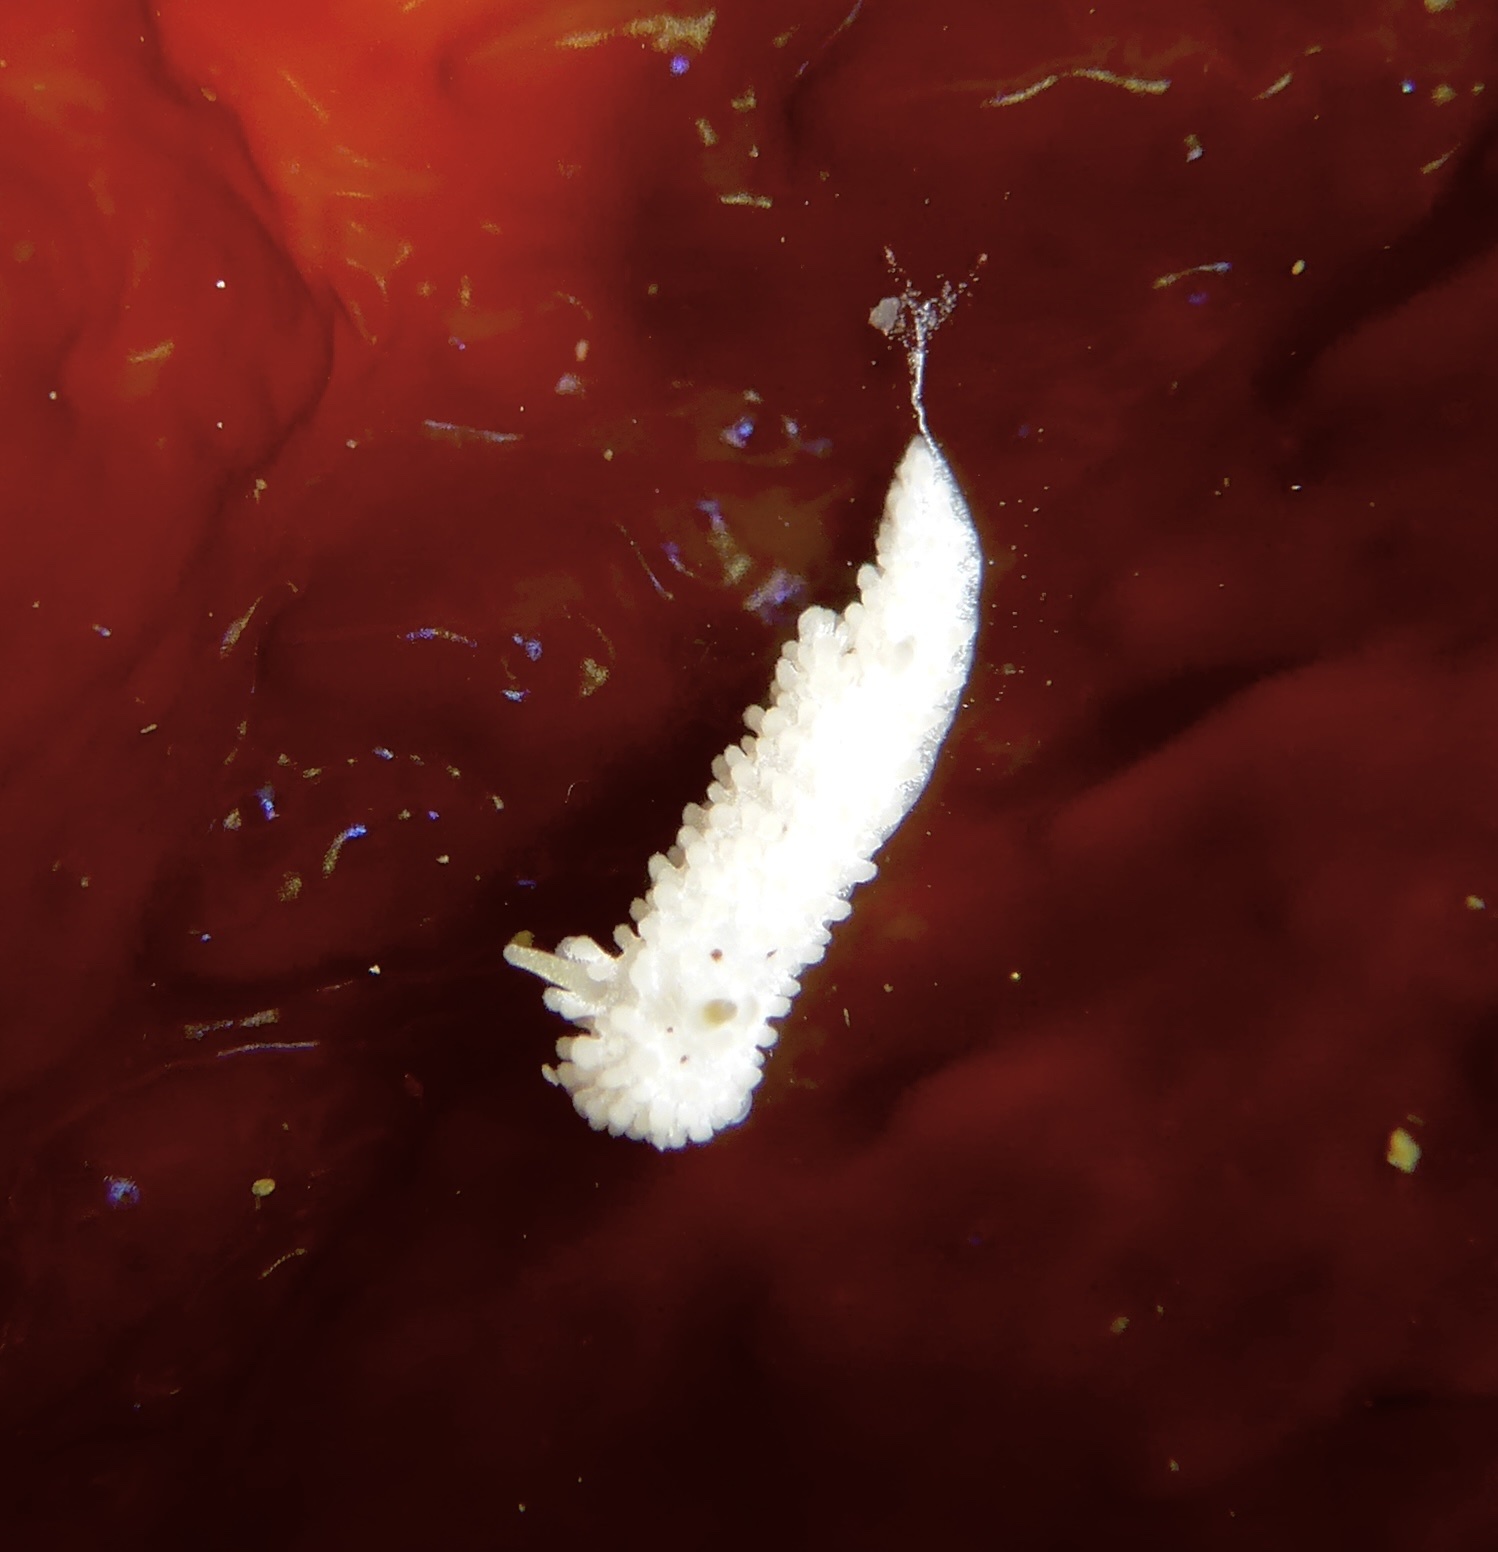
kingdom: Animalia
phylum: Mollusca
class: Gastropoda
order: Nudibranchia
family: Aegiridae
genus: Aegires
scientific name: Aegires albopunctatus
